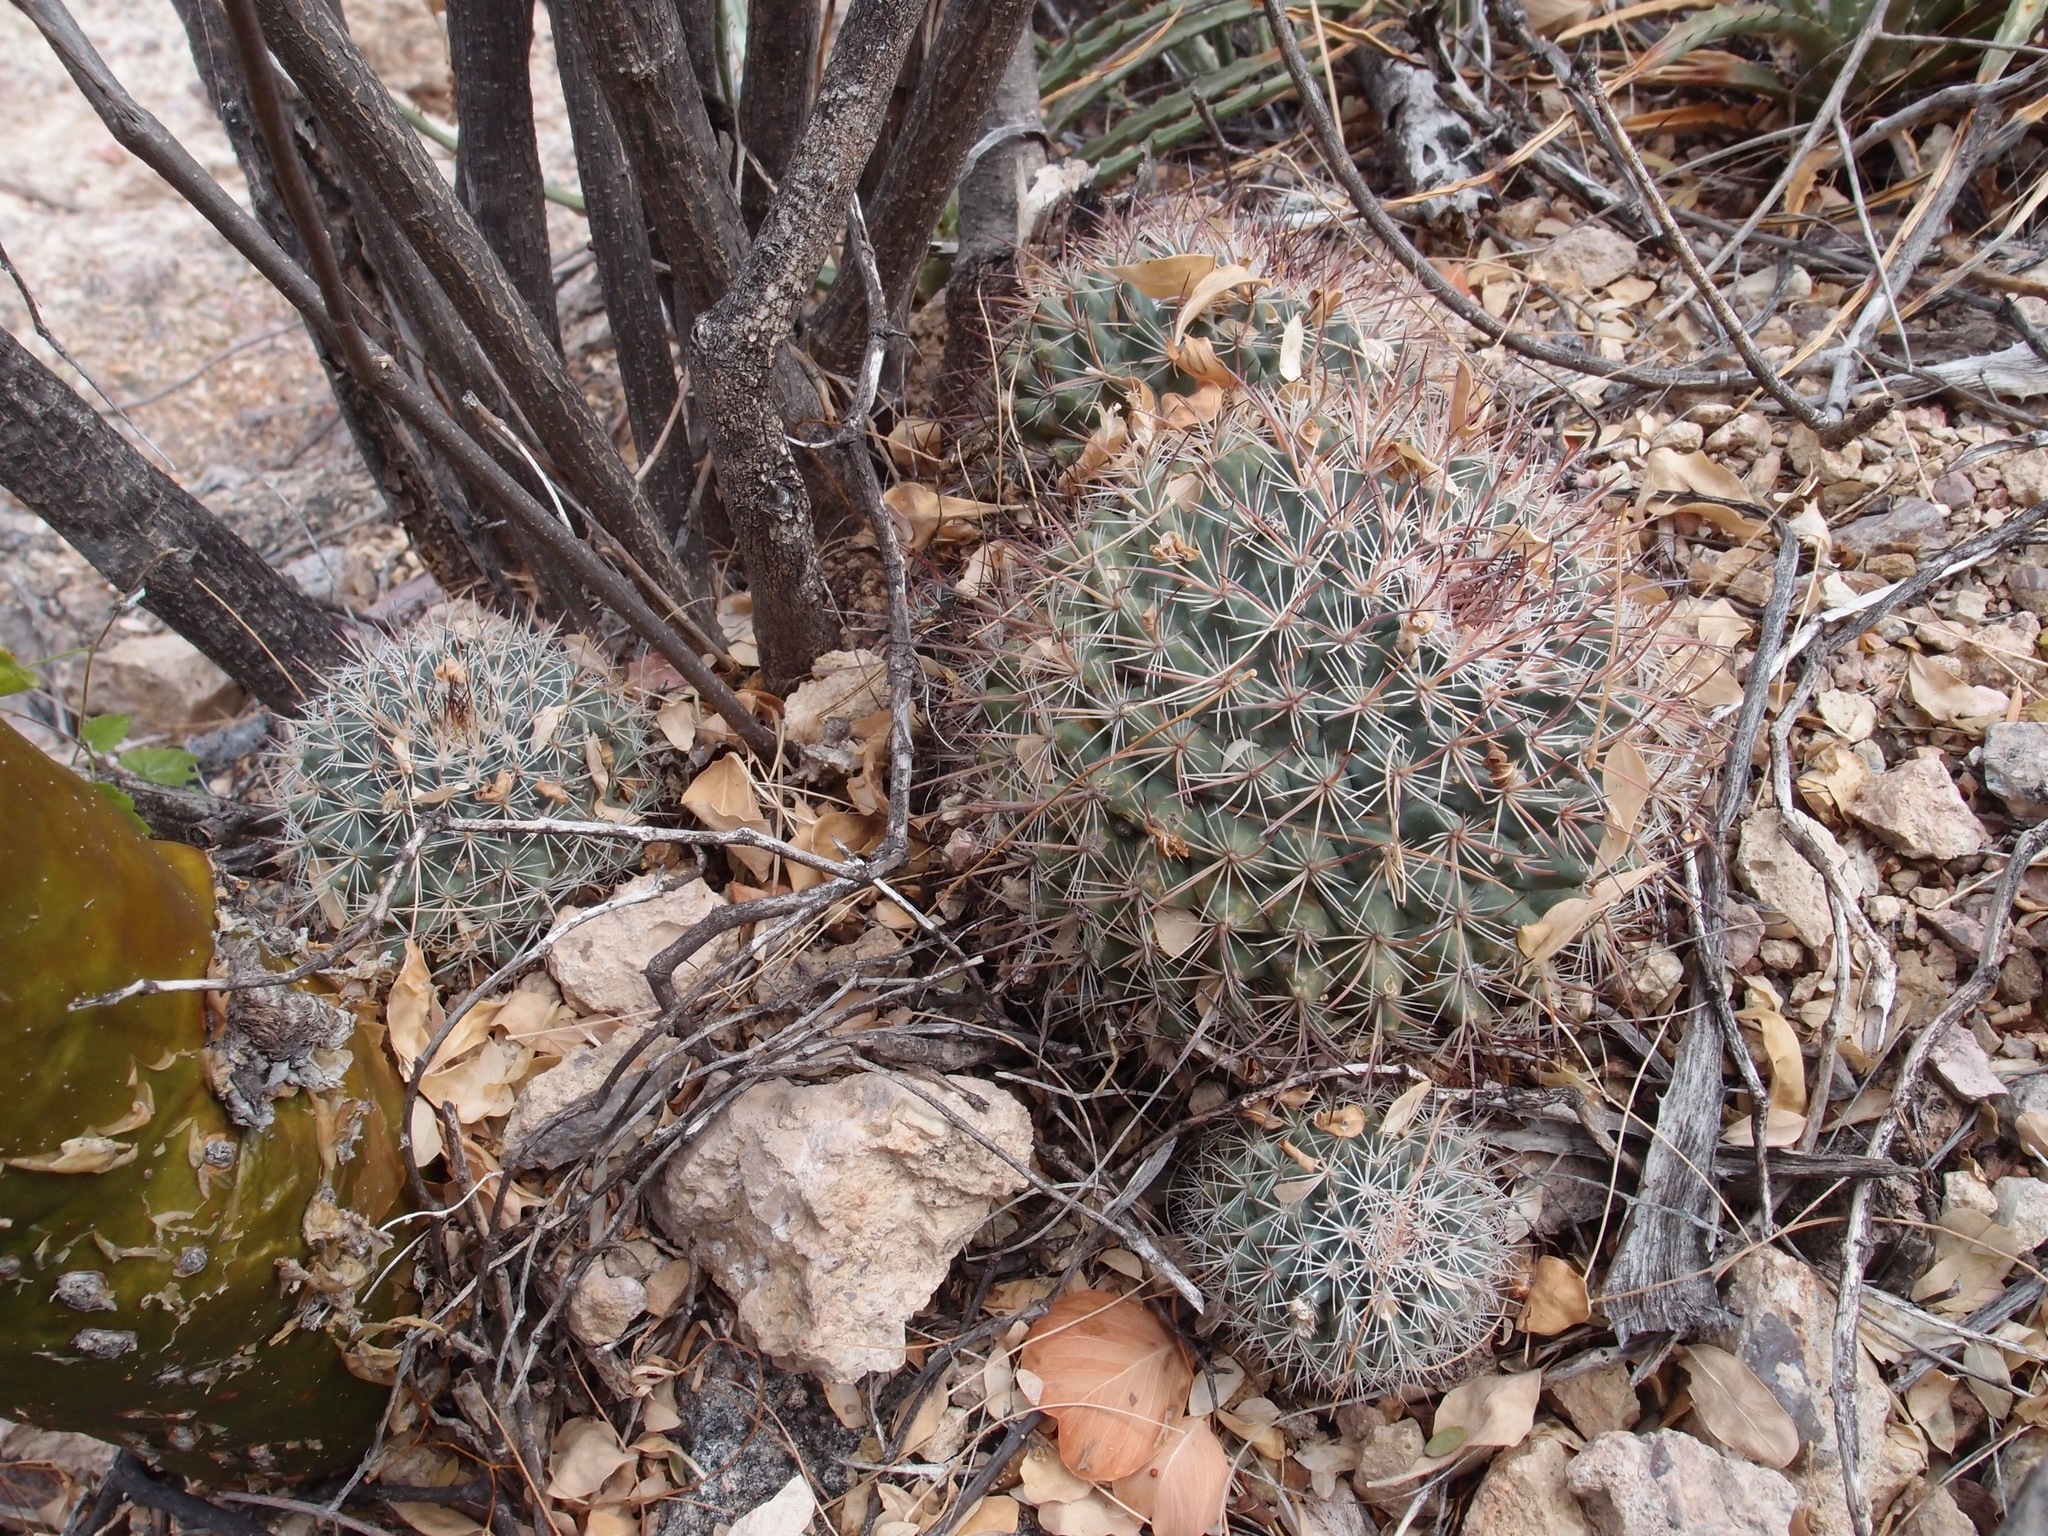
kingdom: Plantae
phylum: Tracheophyta
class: Magnoliopsida
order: Caryophyllales
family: Cactaceae
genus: Mammillaria
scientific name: Mammillaria johnstonii
